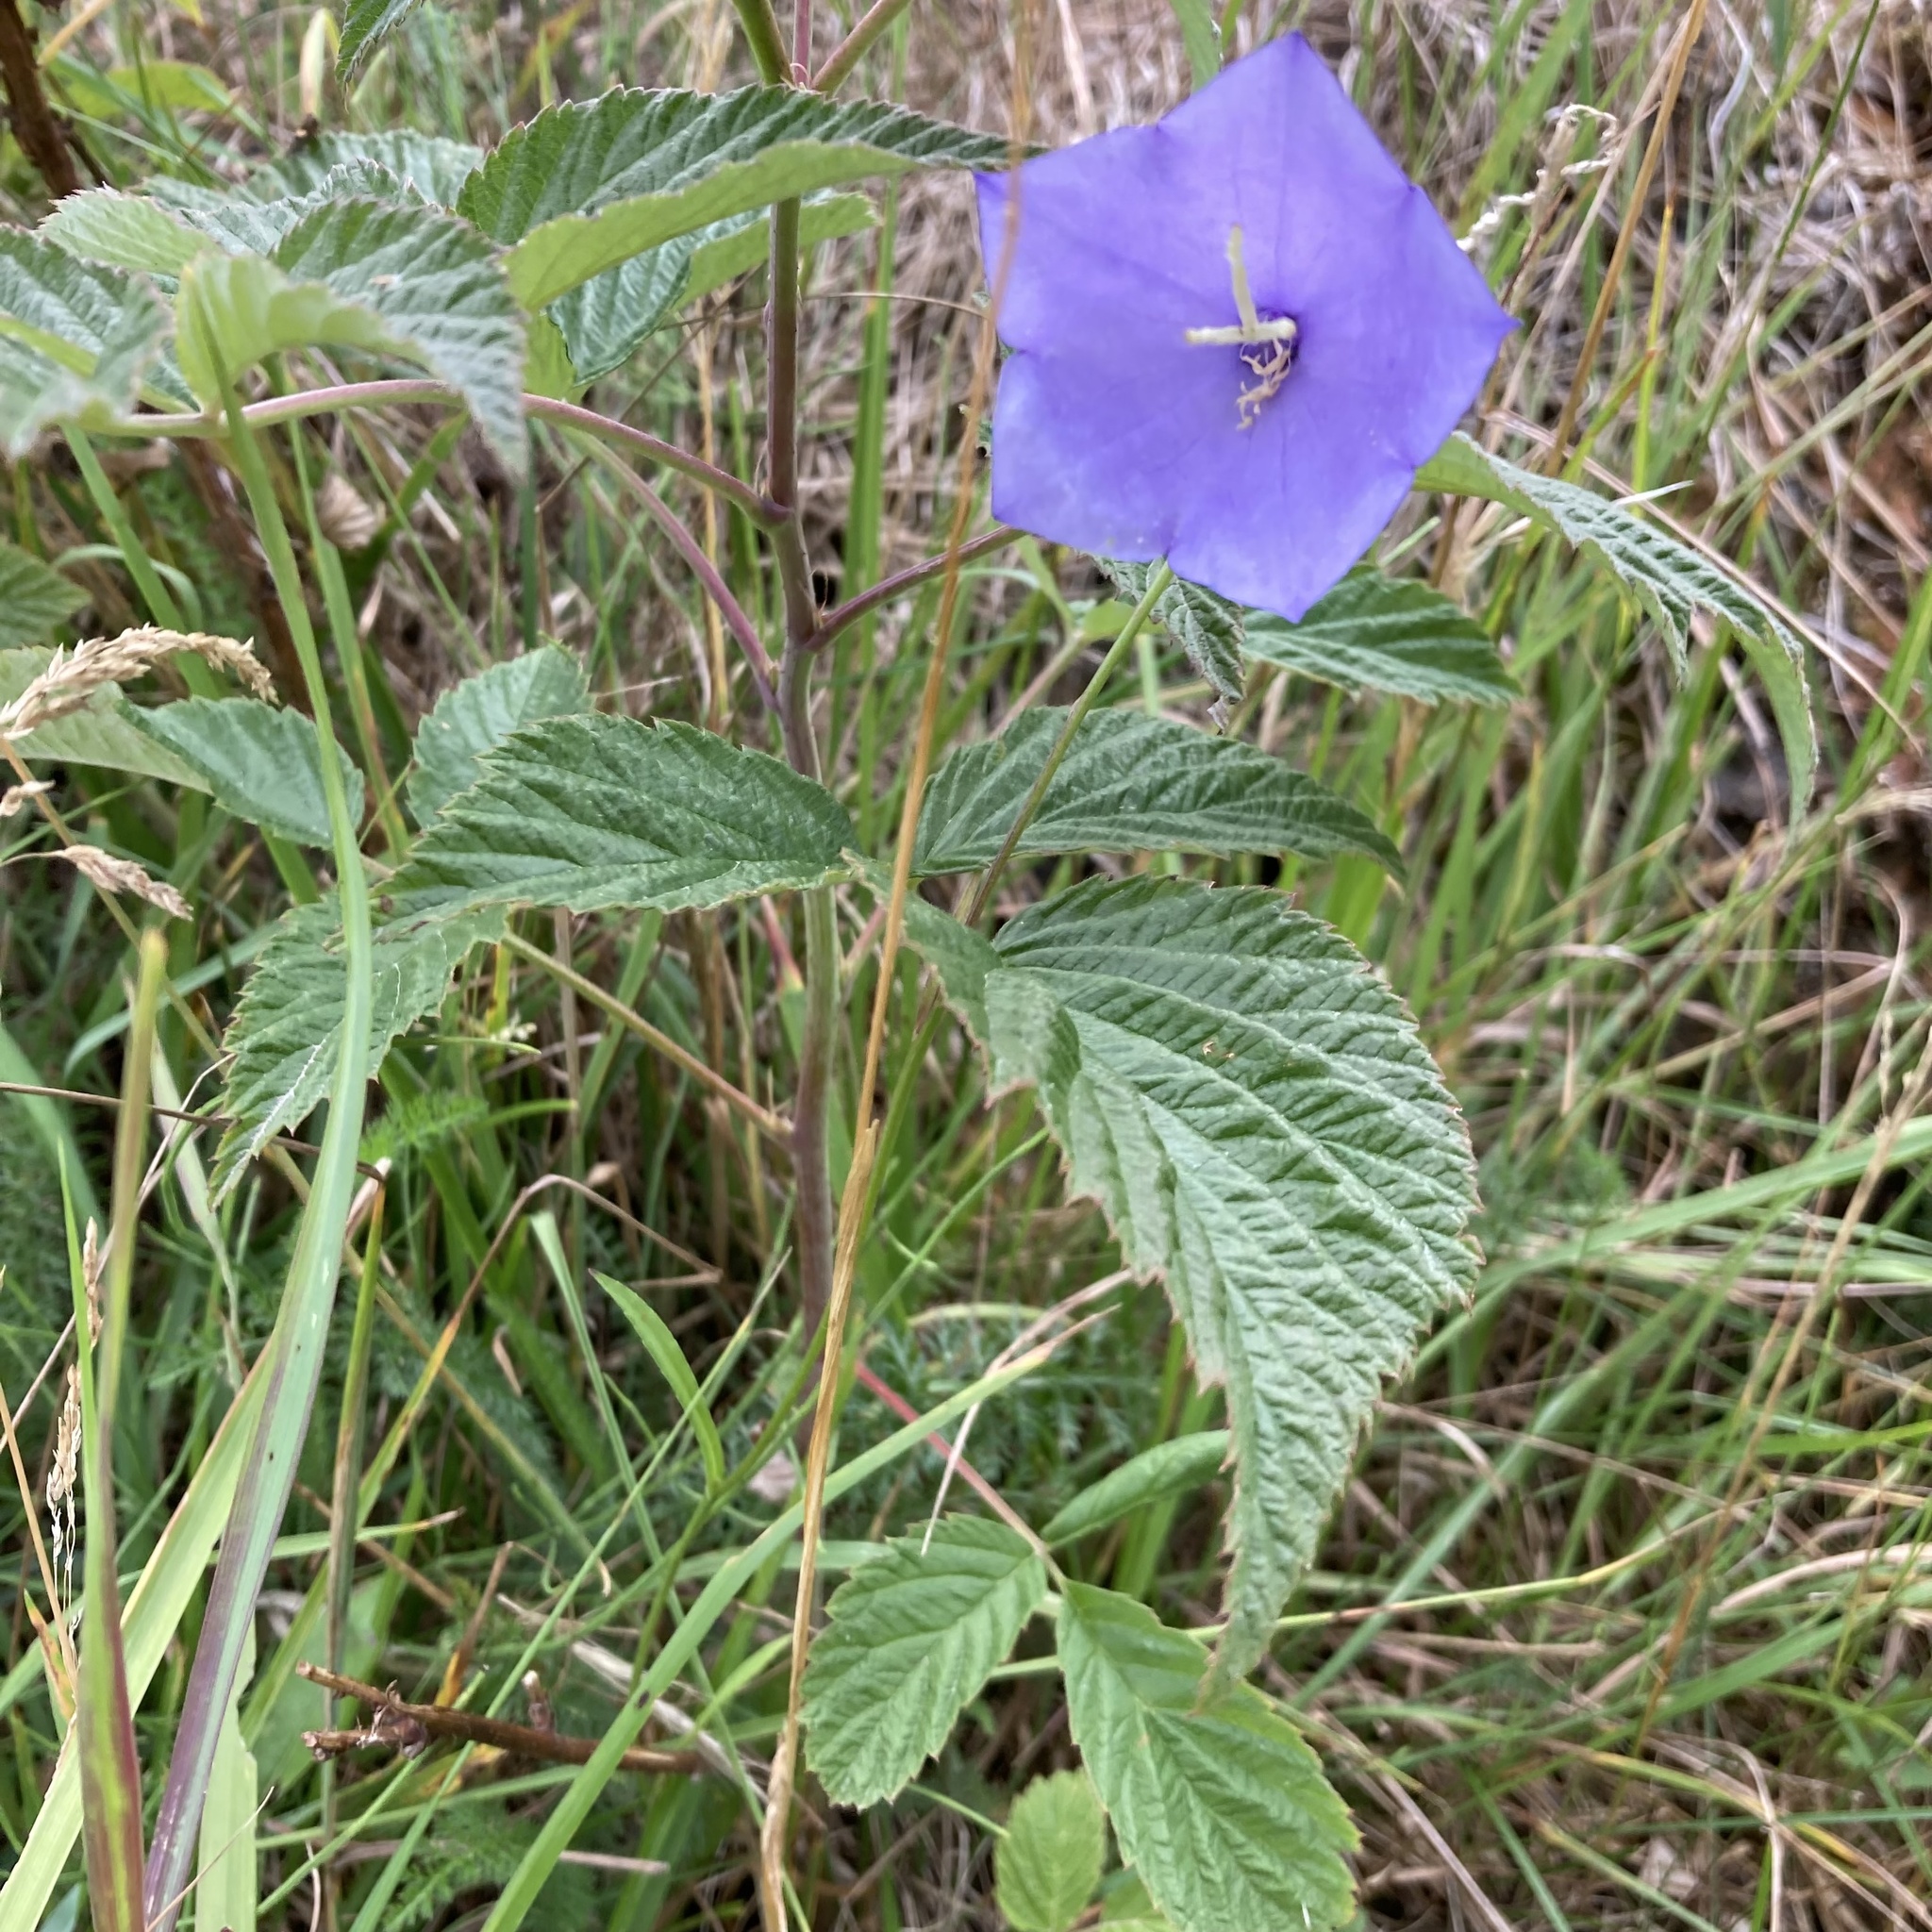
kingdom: Plantae
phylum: Tracheophyta
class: Magnoliopsida
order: Asterales
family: Campanulaceae
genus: Campanula
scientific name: Campanula persicifolia
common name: Peach-leaved bellflower
